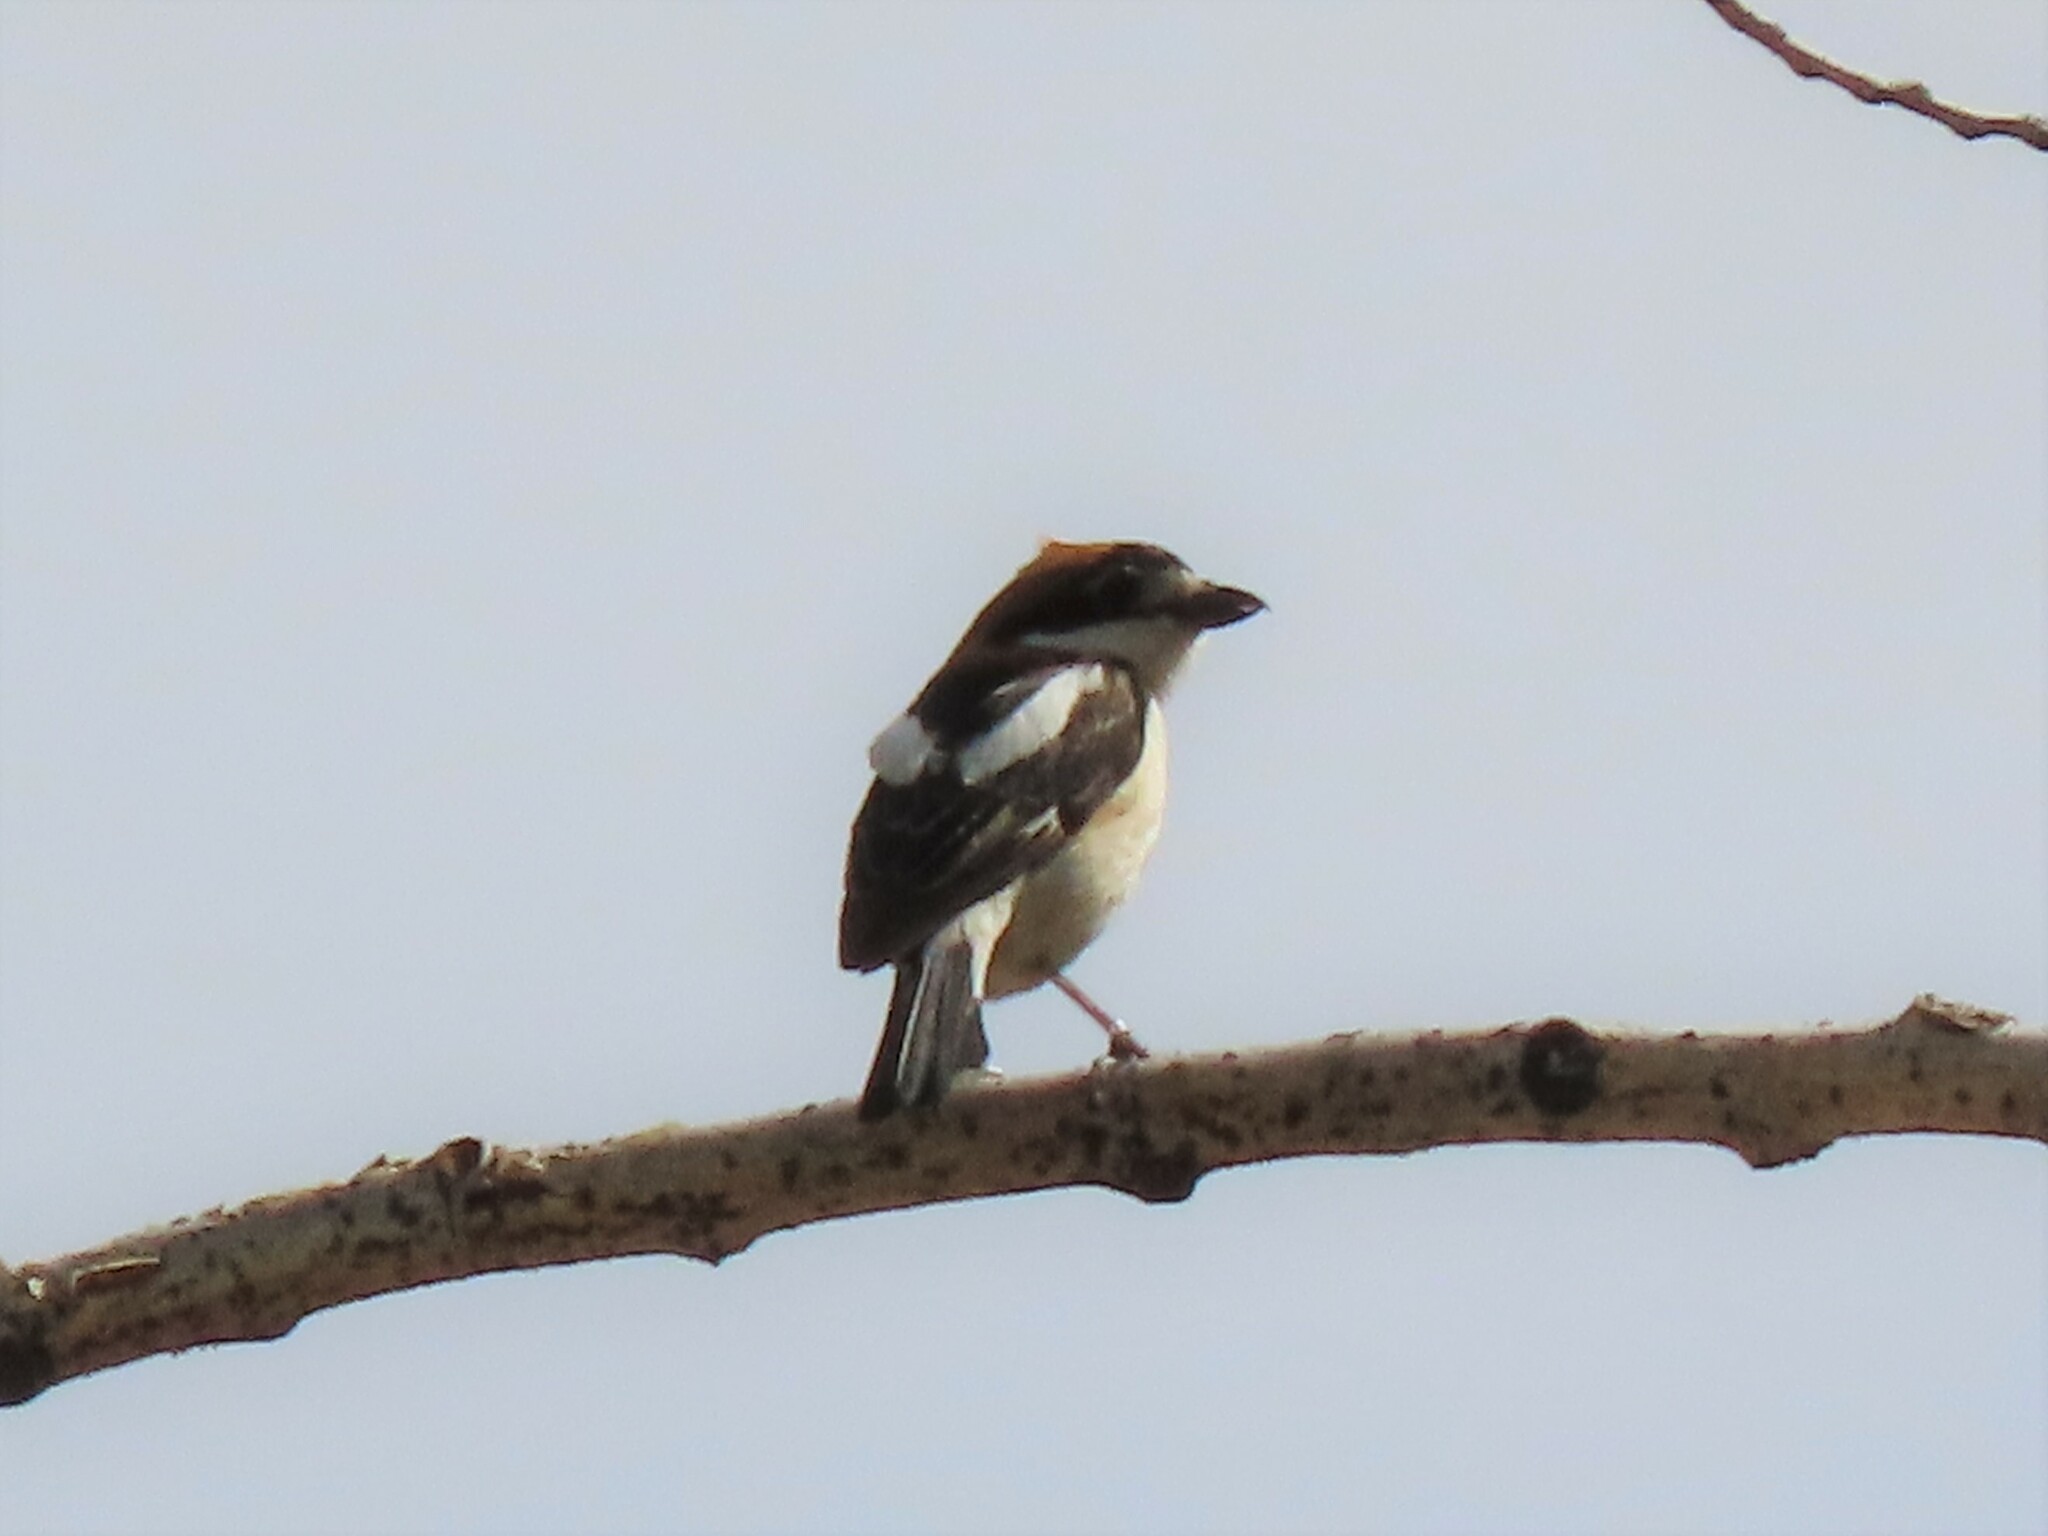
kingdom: Animalia
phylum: Chordata
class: Aves
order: Passeriformes
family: Laniidae
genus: Lanius
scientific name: Lanius senator
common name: Woodchat shrike
